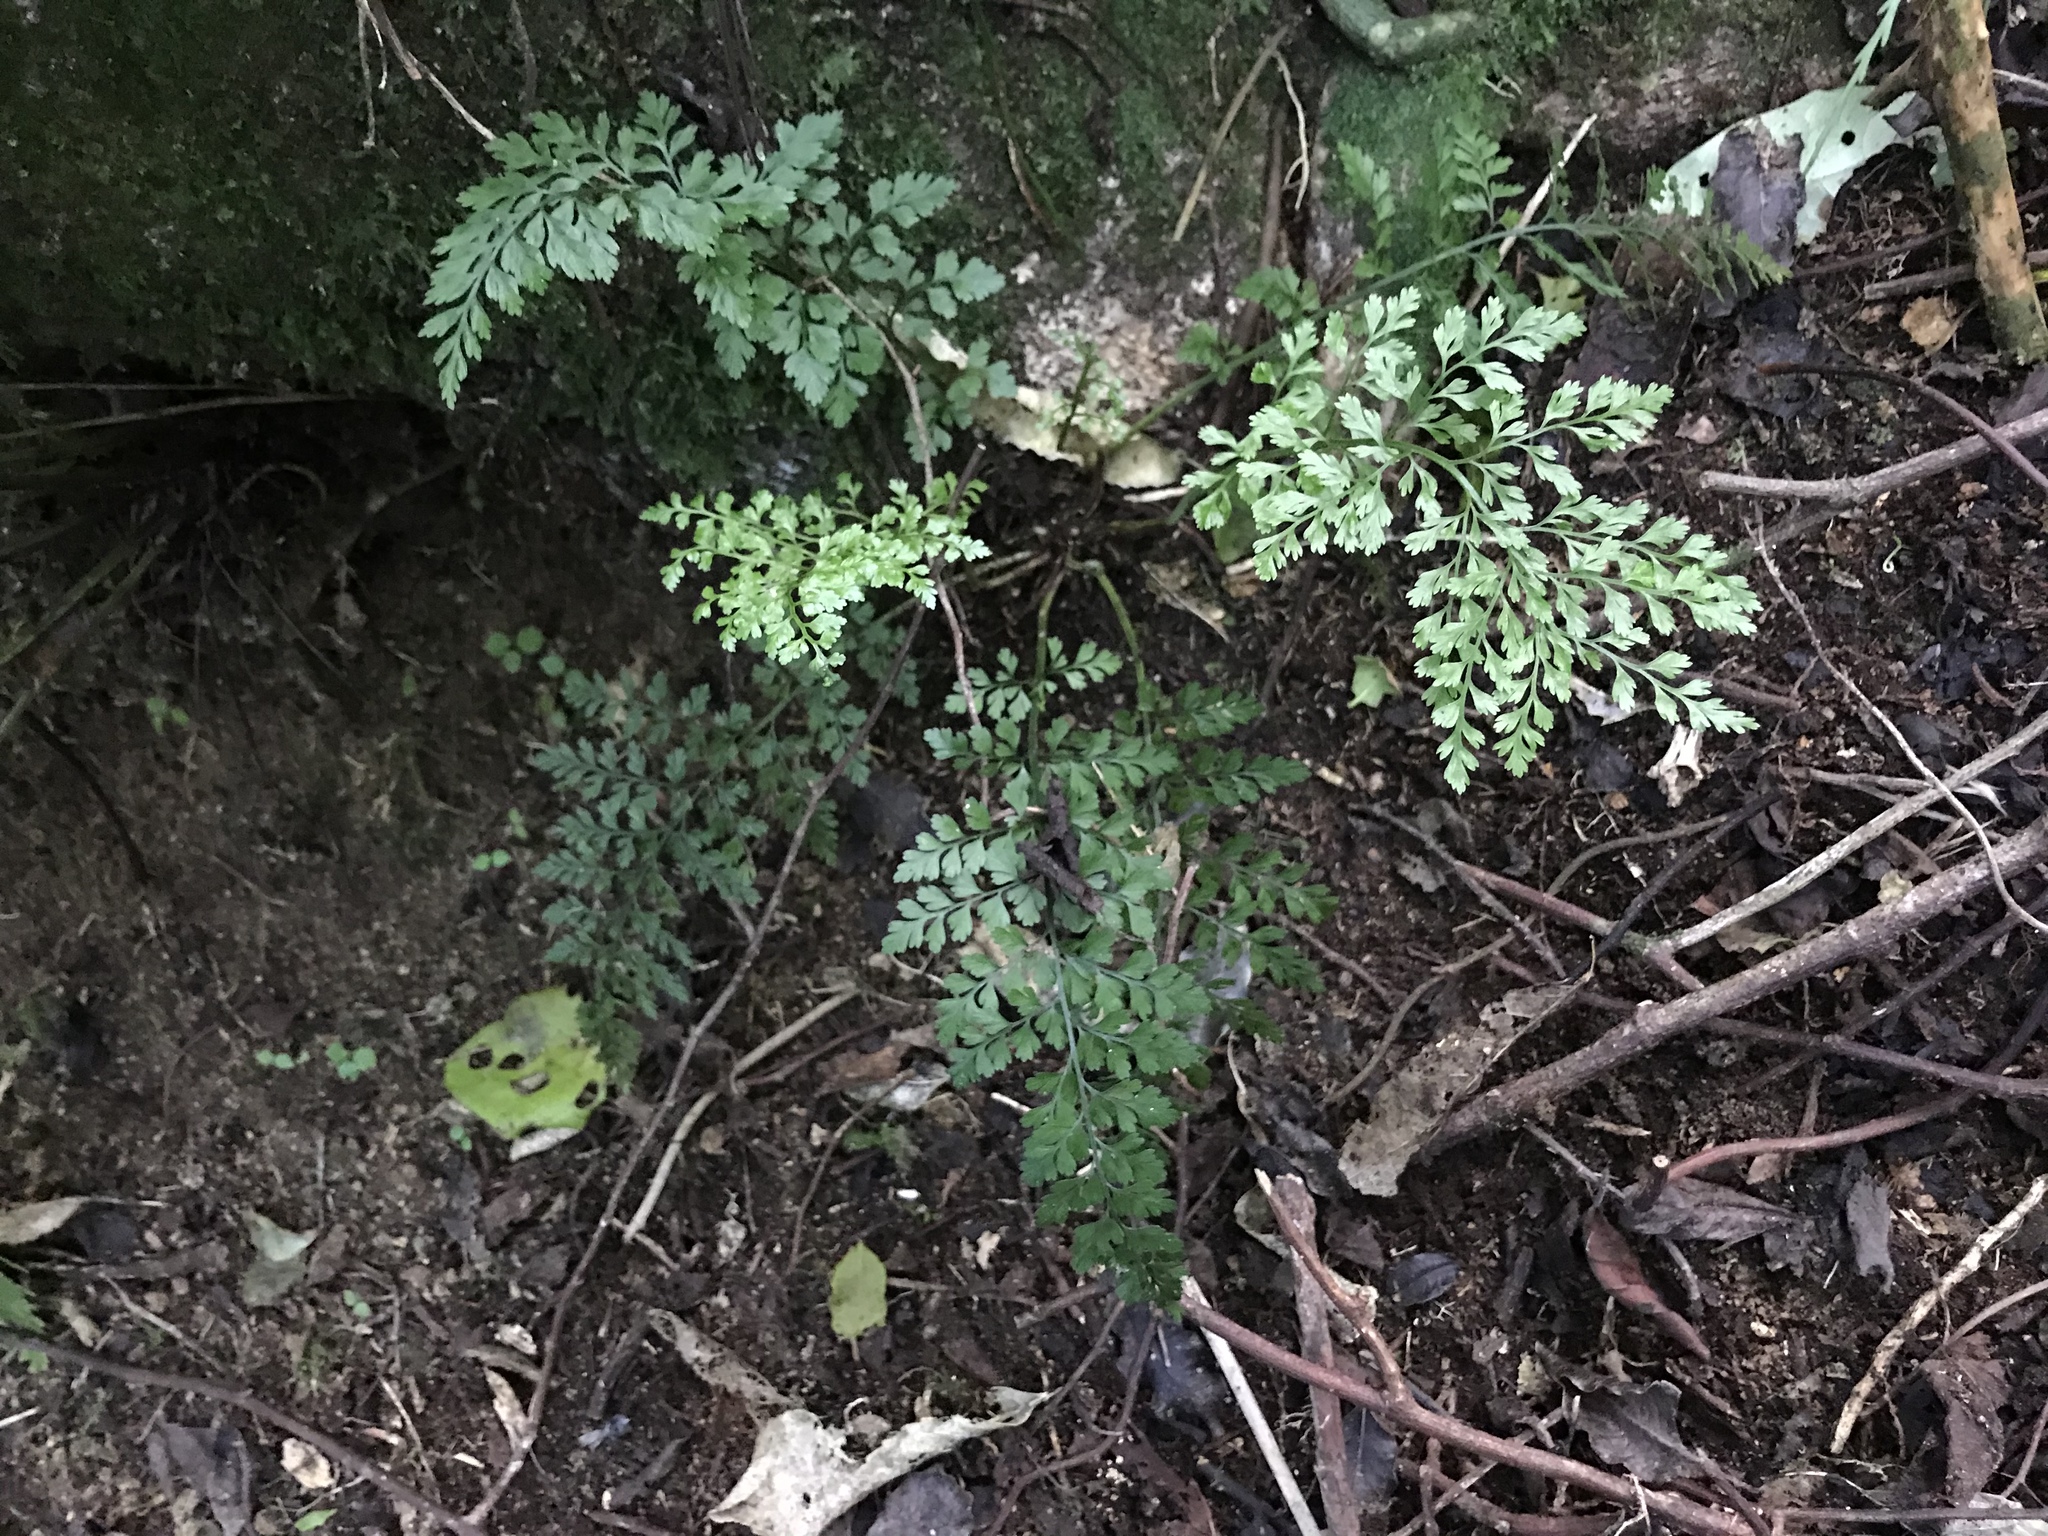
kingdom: Plantae
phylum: Tracheophyta
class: Polypodiopsida
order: Polypodiales
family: Aspleniaceae
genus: Asplenium
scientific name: Asplenium hookerianum
